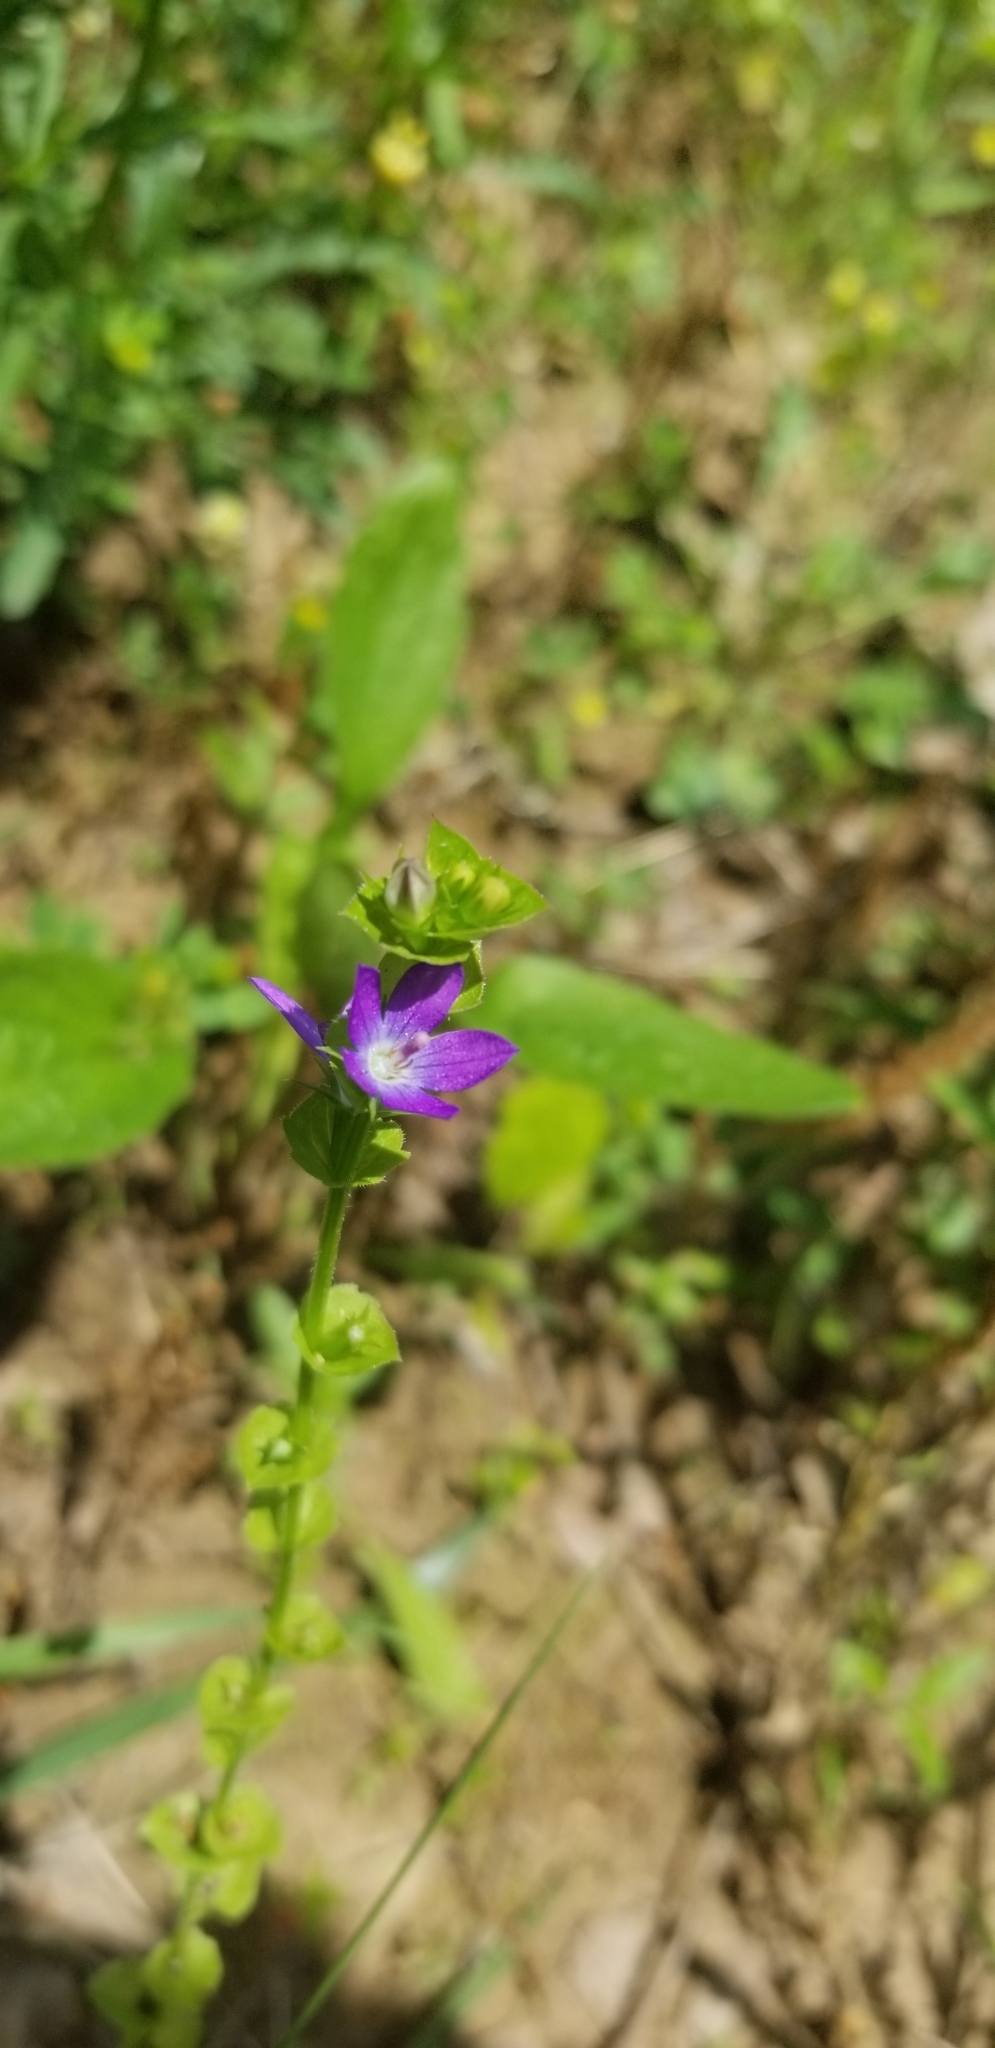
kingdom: Plantae
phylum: Tracheophyta
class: Magnoliopsida
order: Asterales
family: Campanulaceae
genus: Triodanis
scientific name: Triodanis perfoliata
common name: Clasping venus' looking-glass
